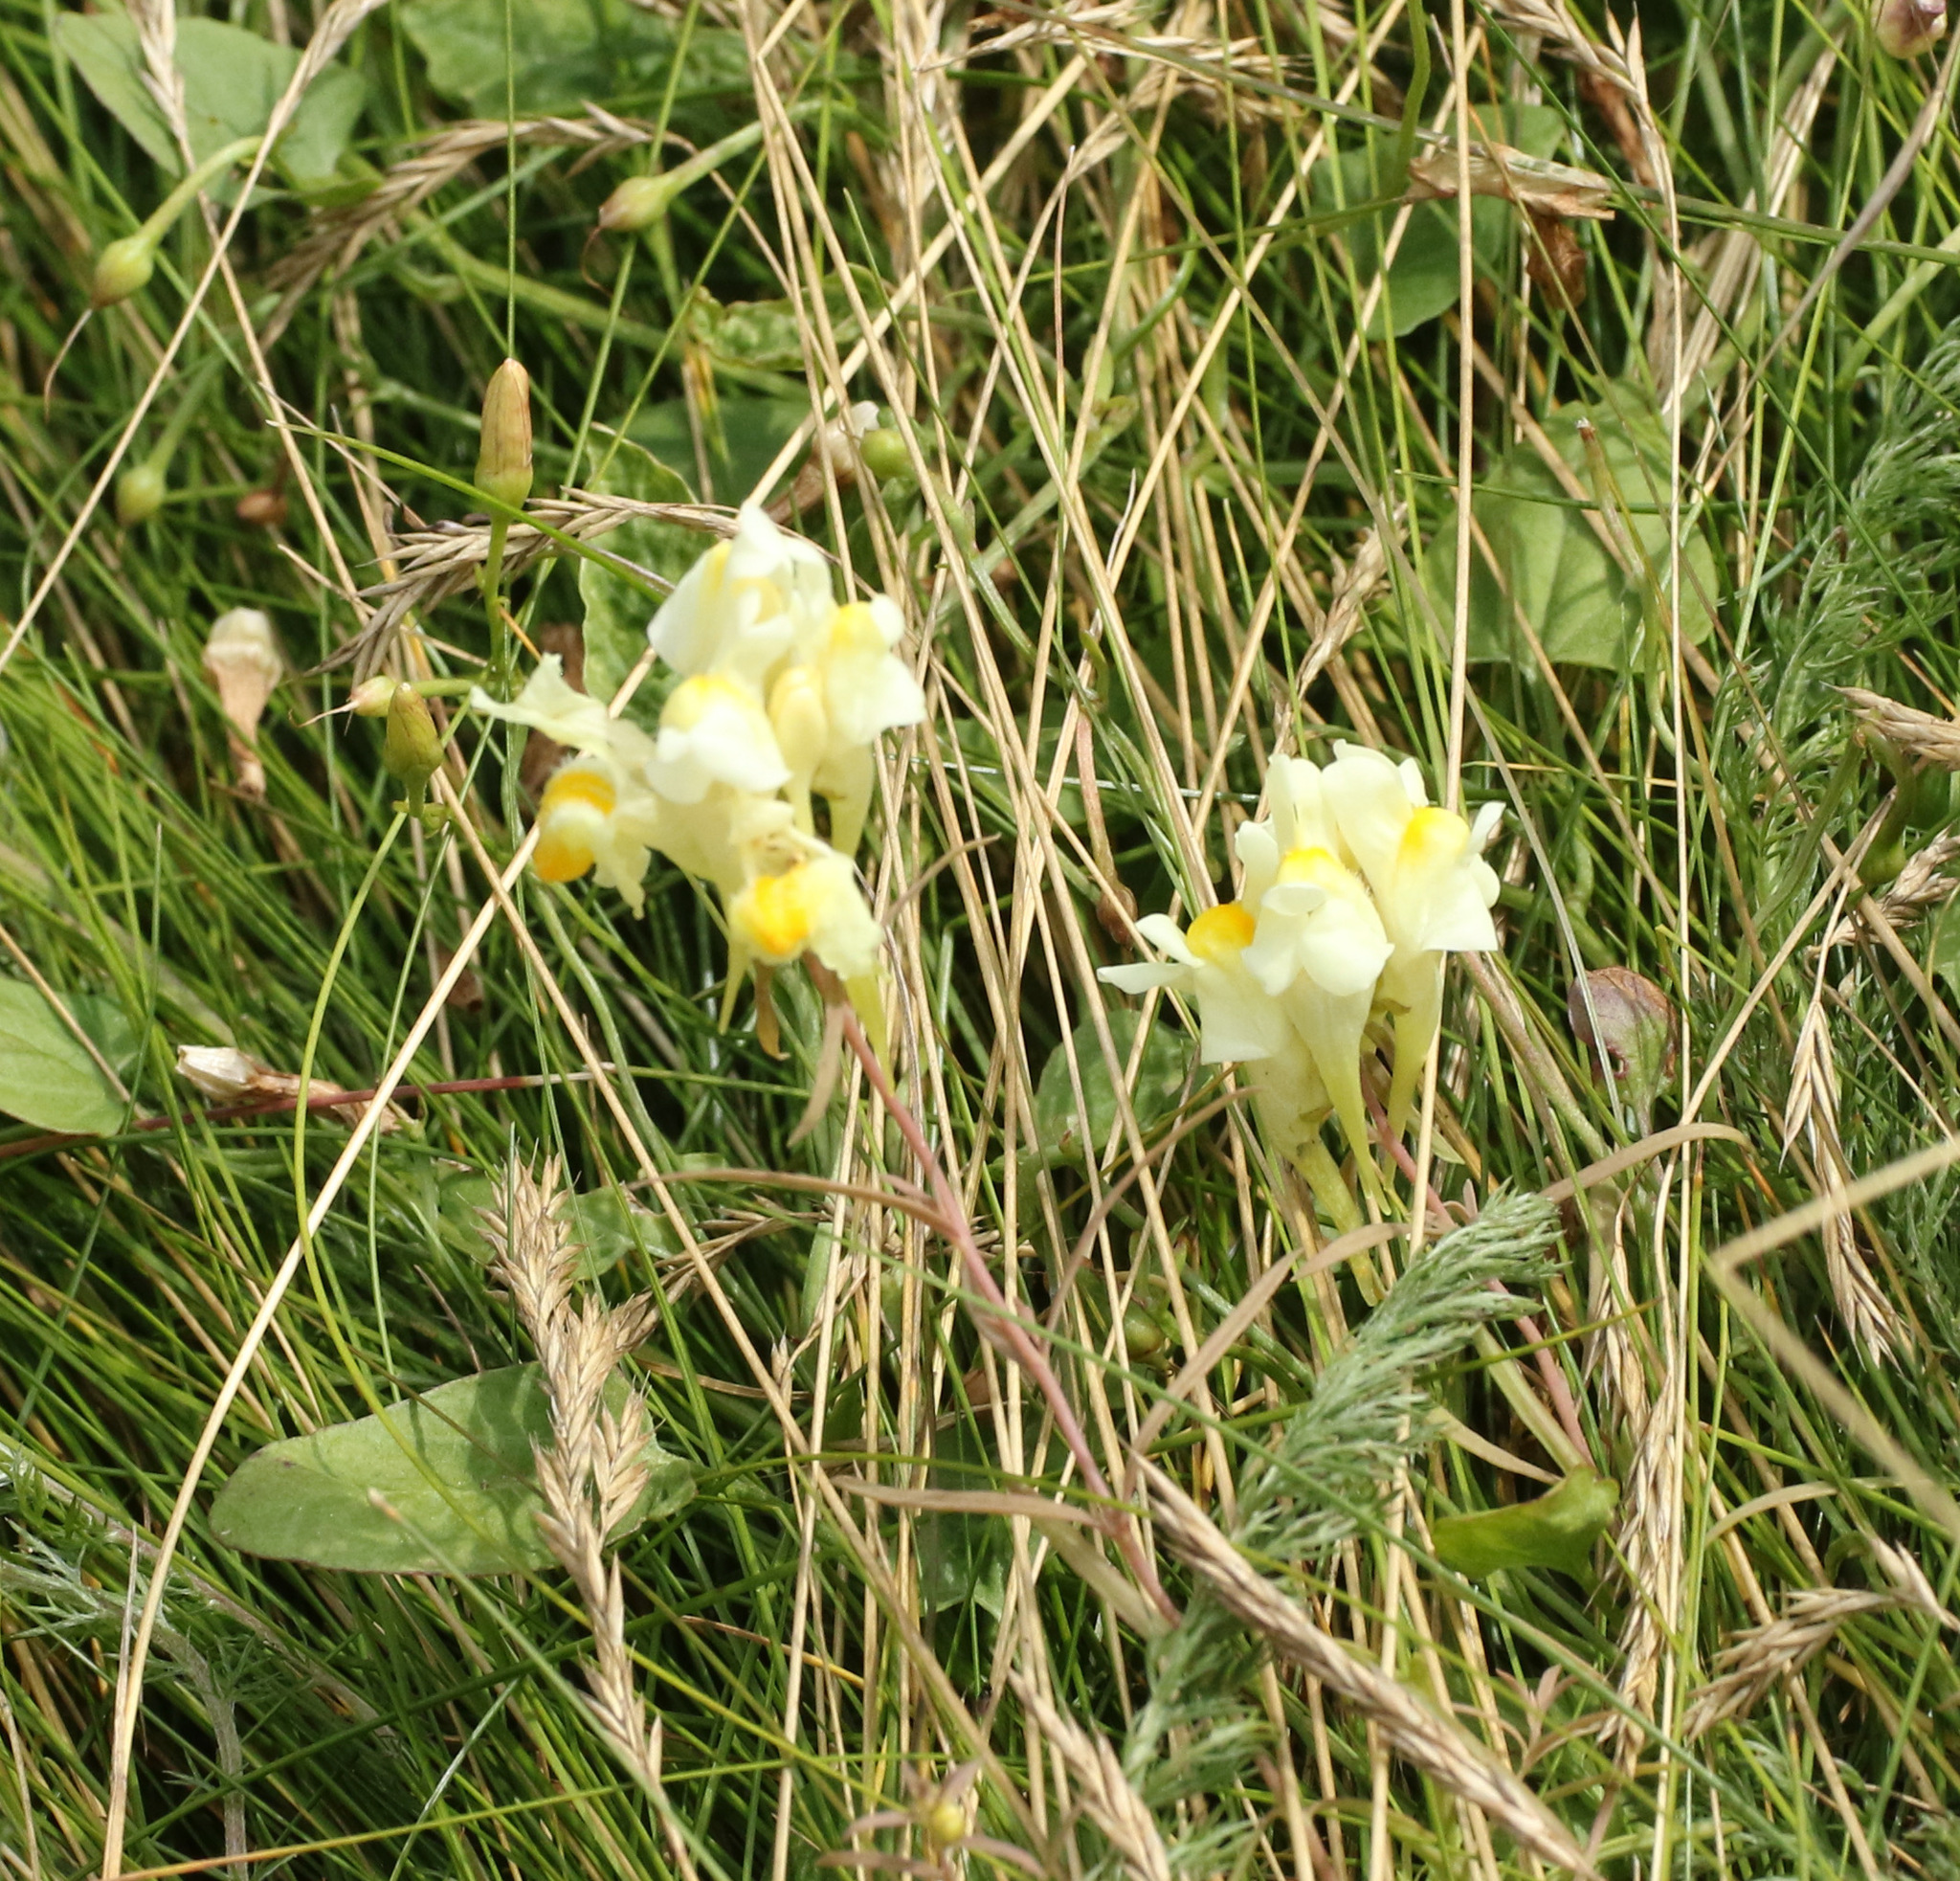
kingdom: Plantae
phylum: Tracheophyta
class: Magnoliopsida
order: Lamiales
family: Plantaginaceae
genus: Linaria
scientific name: Linaria vulgaris
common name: Butter and eggs
